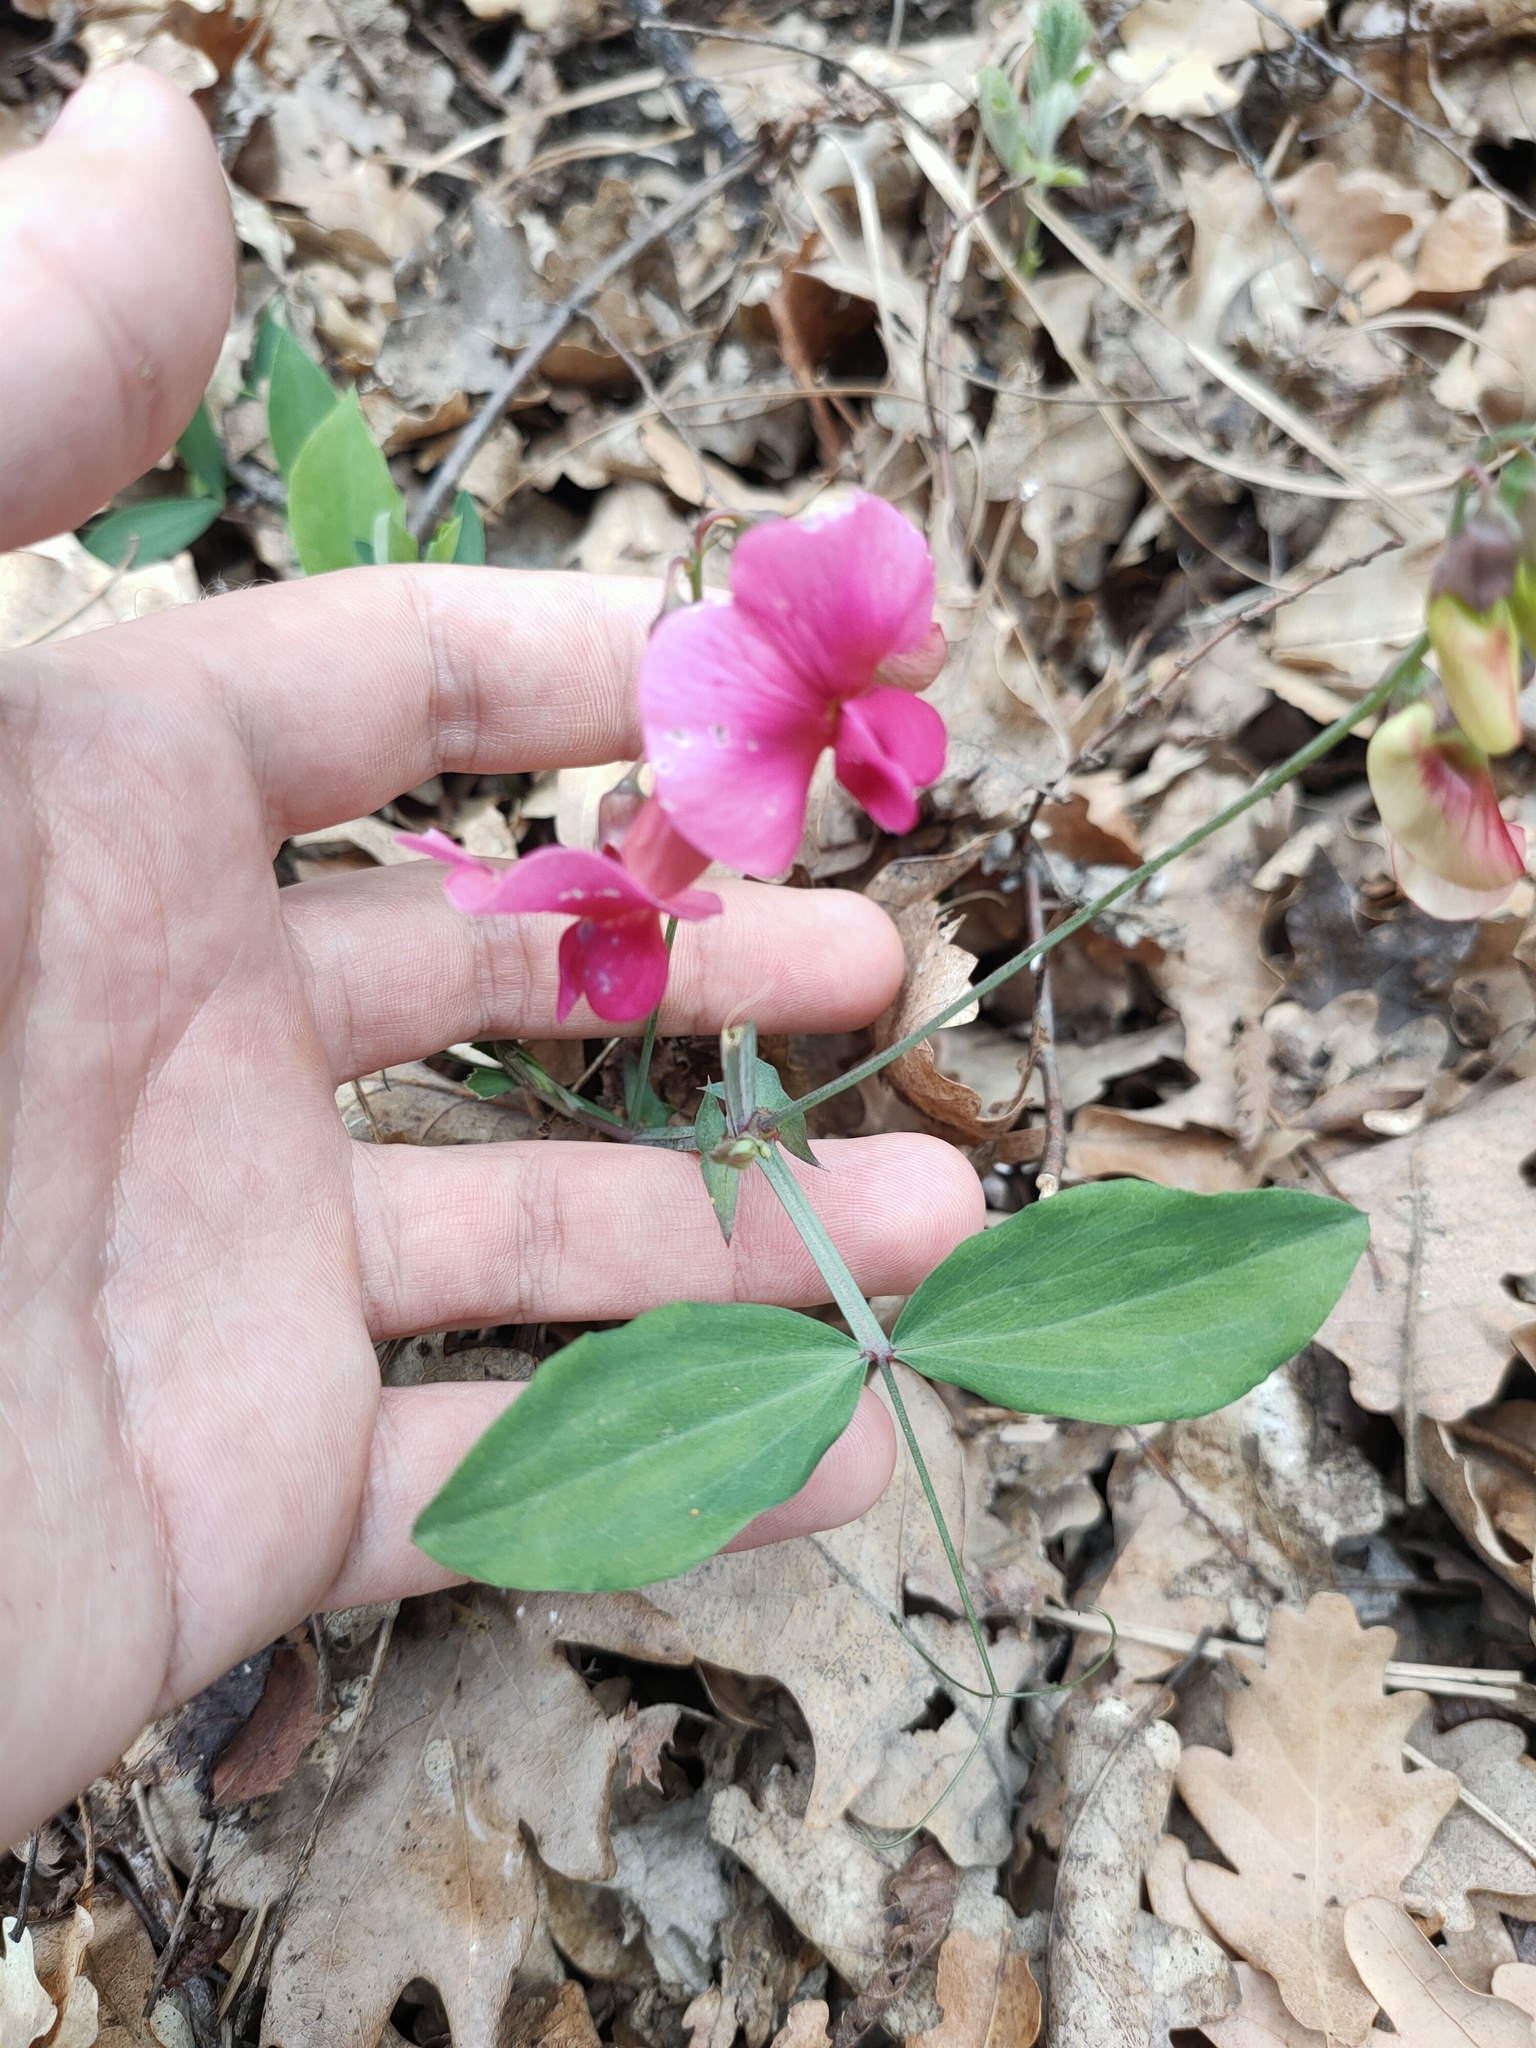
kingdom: Plantae
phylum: Tracheophyta
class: Magnoliopsida
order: Fabales
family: Fabaceae
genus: Lathyrus
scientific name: Lathyrus rotundifolius
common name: Round-leaf vetchling
